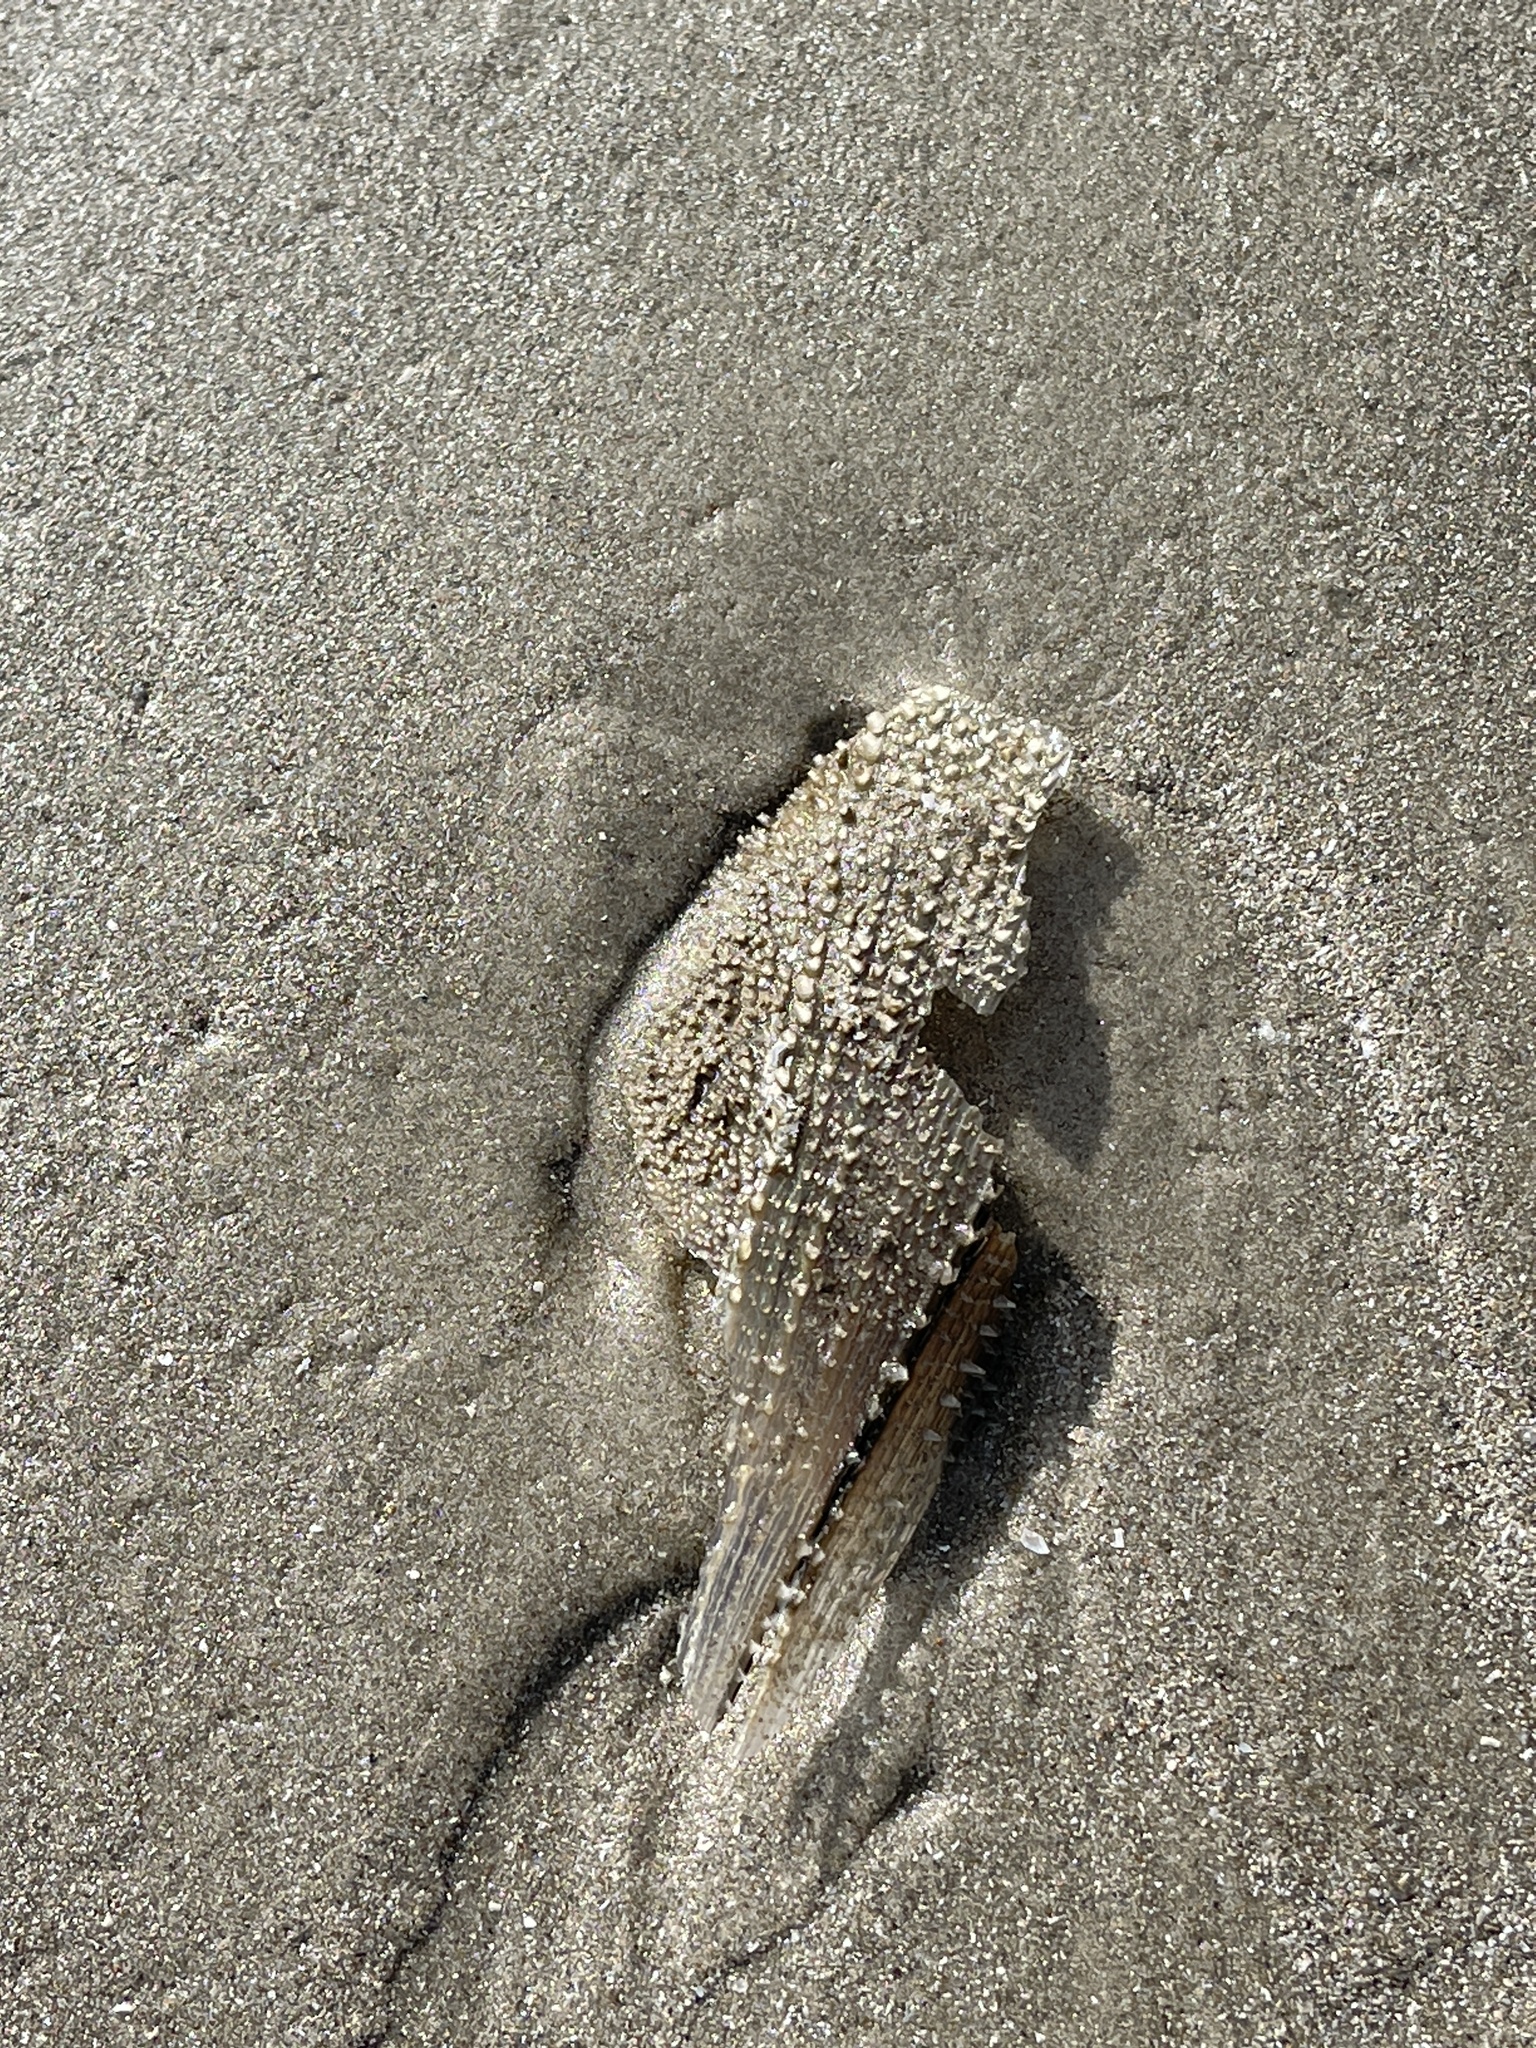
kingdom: Animalia
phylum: Mollusca
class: Bivalvia
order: Ostreida
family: Pinnidae
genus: Atrina
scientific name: Atrina serrata
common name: Saw-toothed penshell
